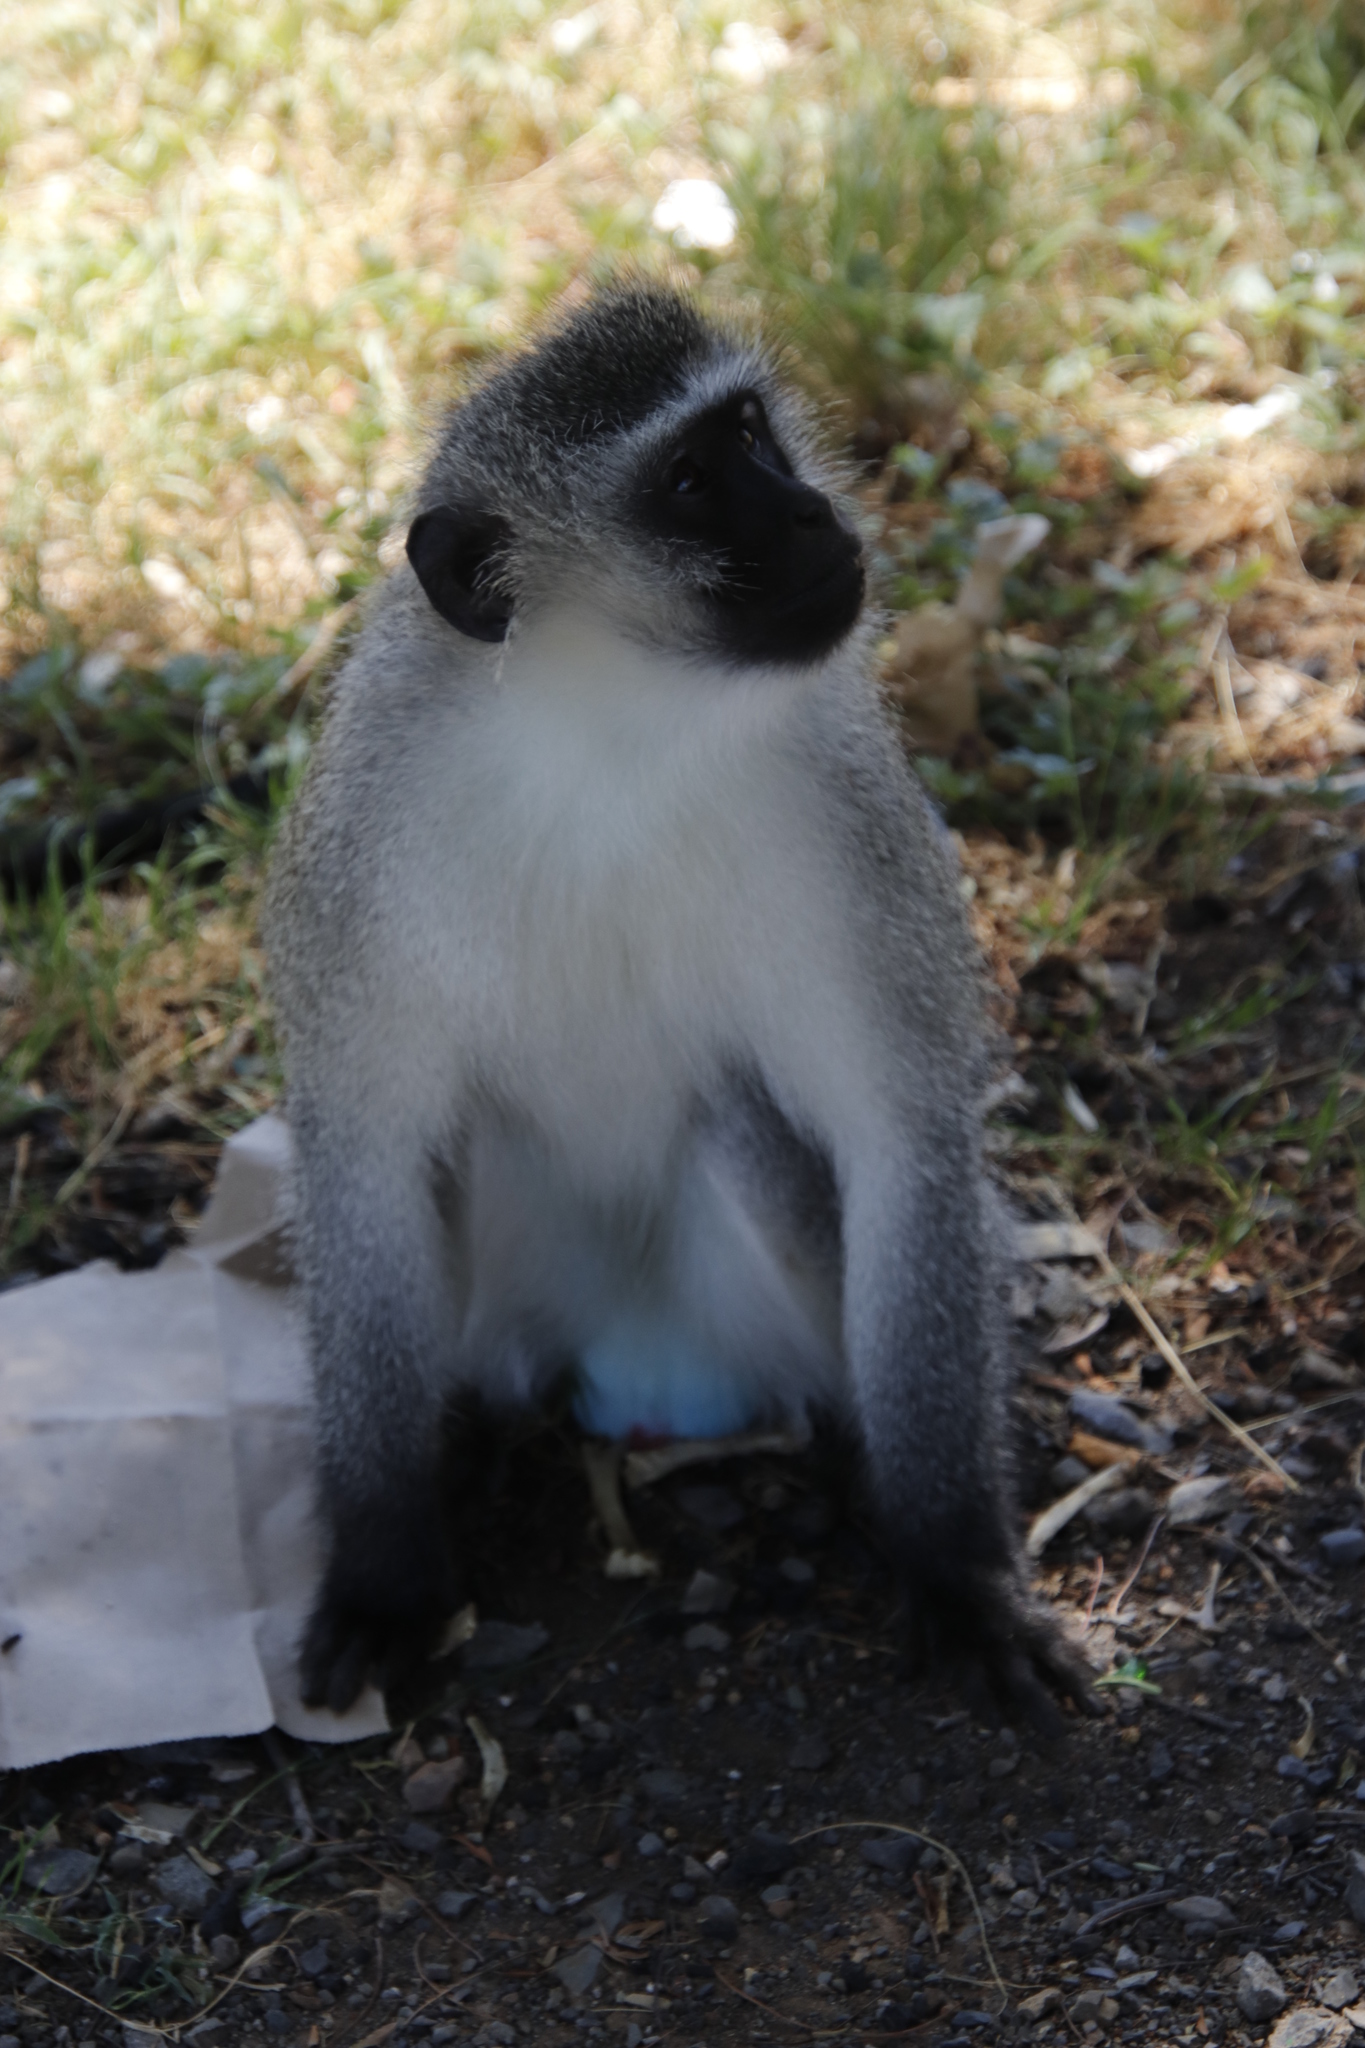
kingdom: Animalia
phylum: Chordata
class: Mammalia
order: Primates
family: Cercopithecidae
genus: Chlorocebus
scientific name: Chlorocebus pygerythrus
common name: Vervet monkey
